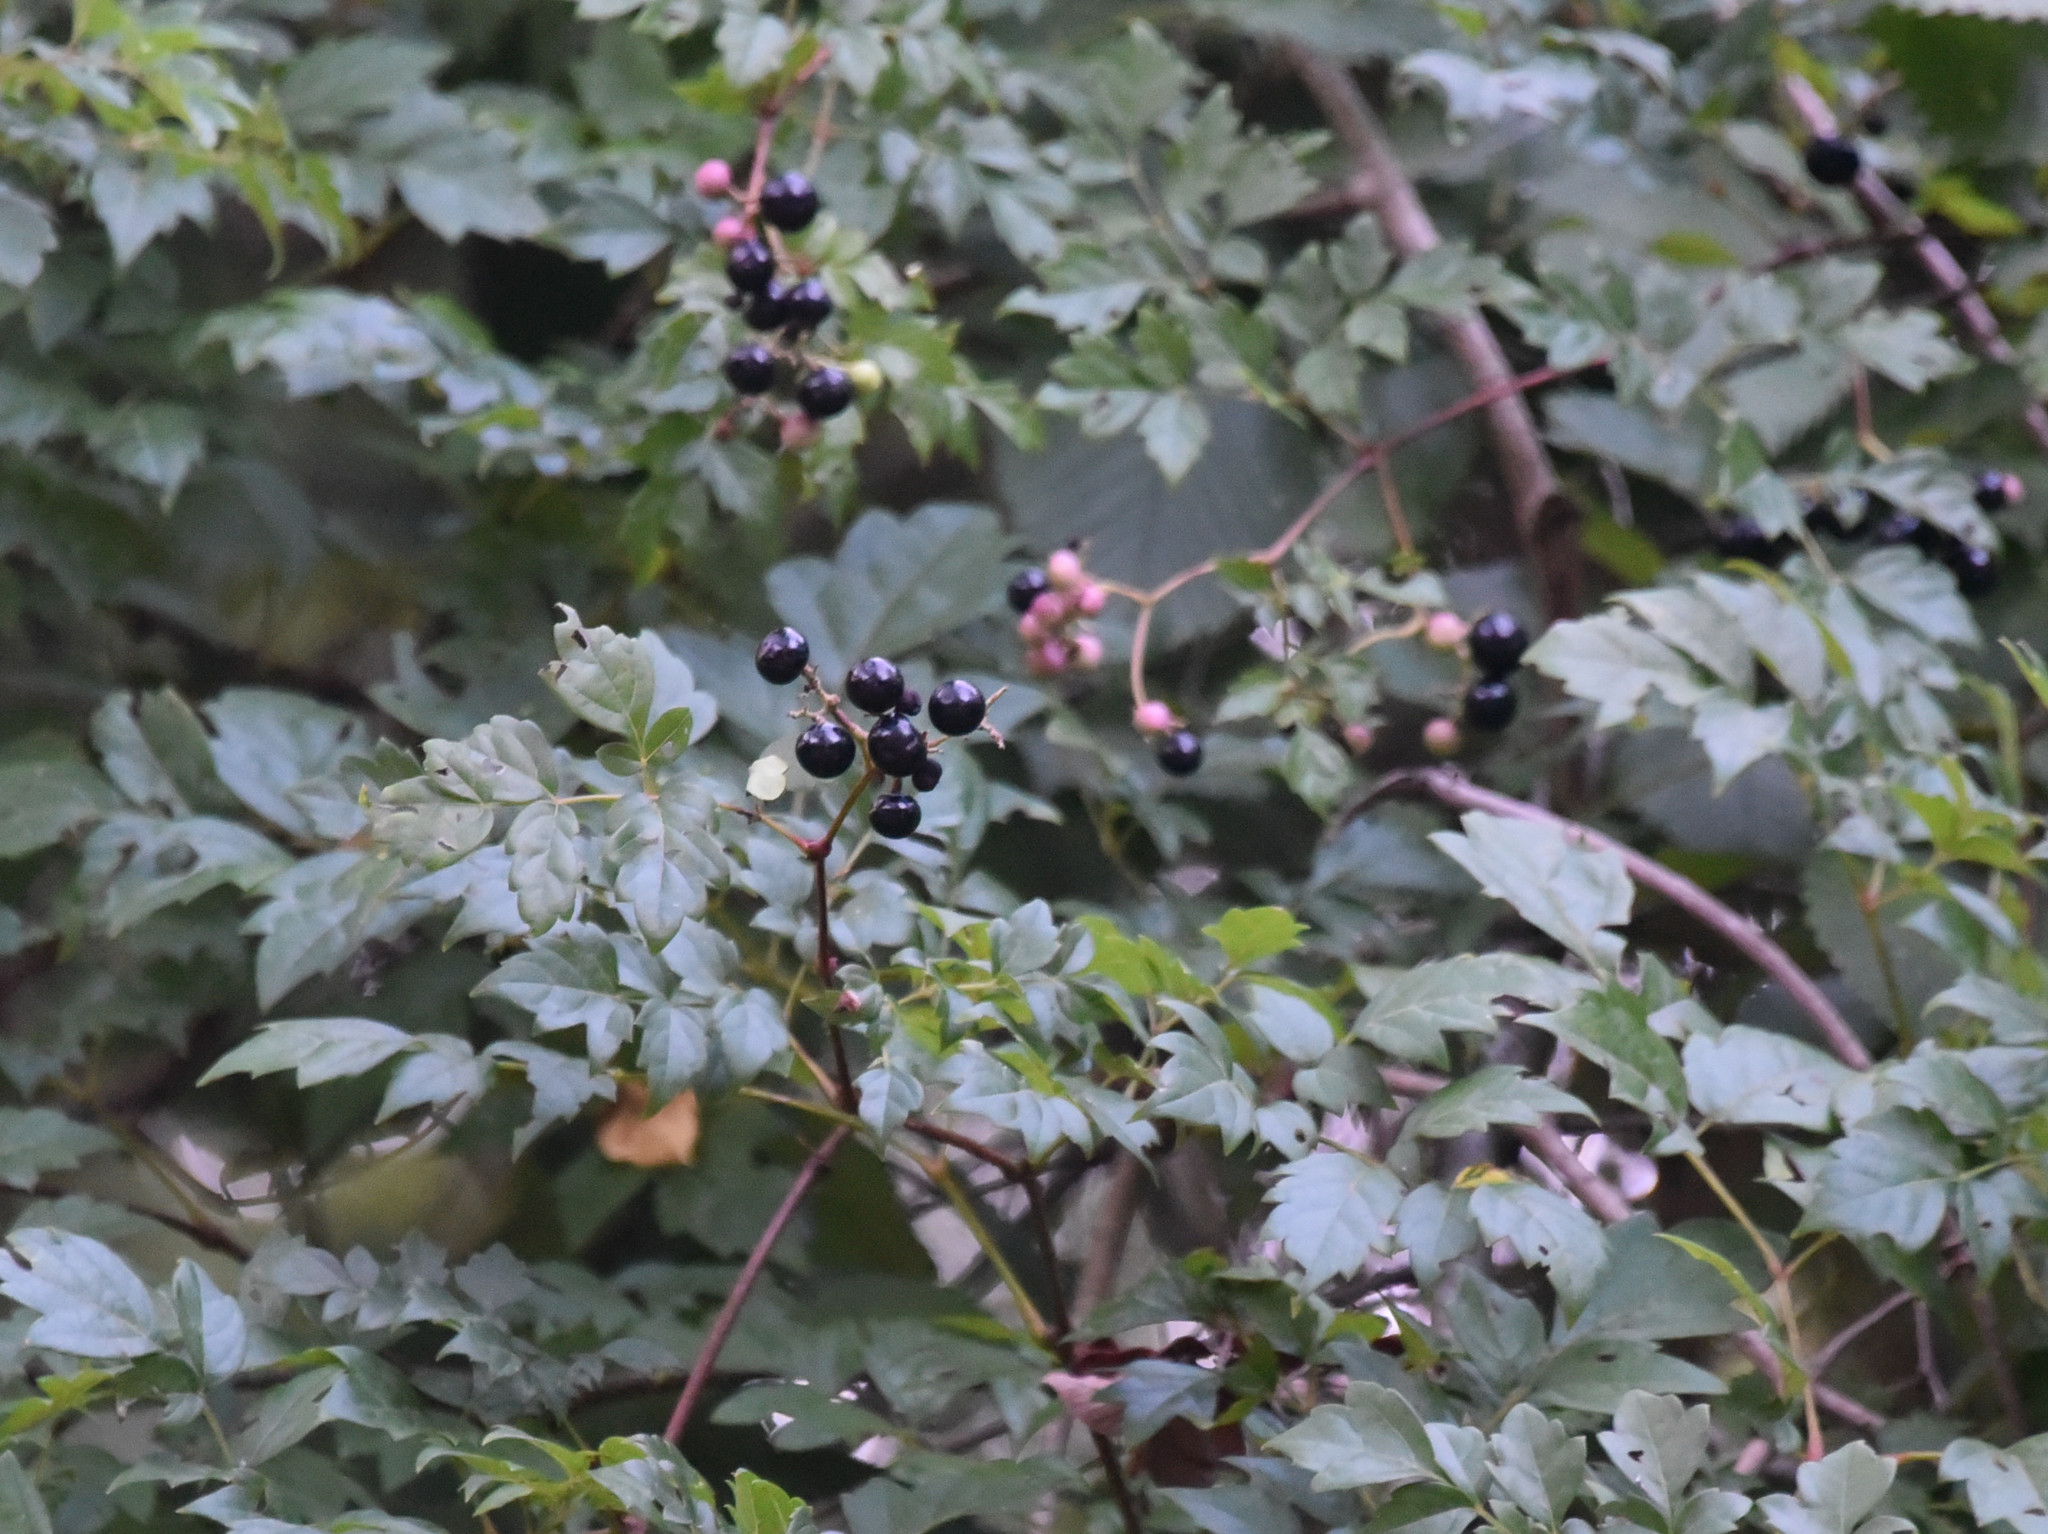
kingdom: Plantae
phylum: Tracheophyta
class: Magnoliopsida
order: Vitales
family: Vitaceae
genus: Nekemias
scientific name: Nekemias arborea
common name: Peppervine
